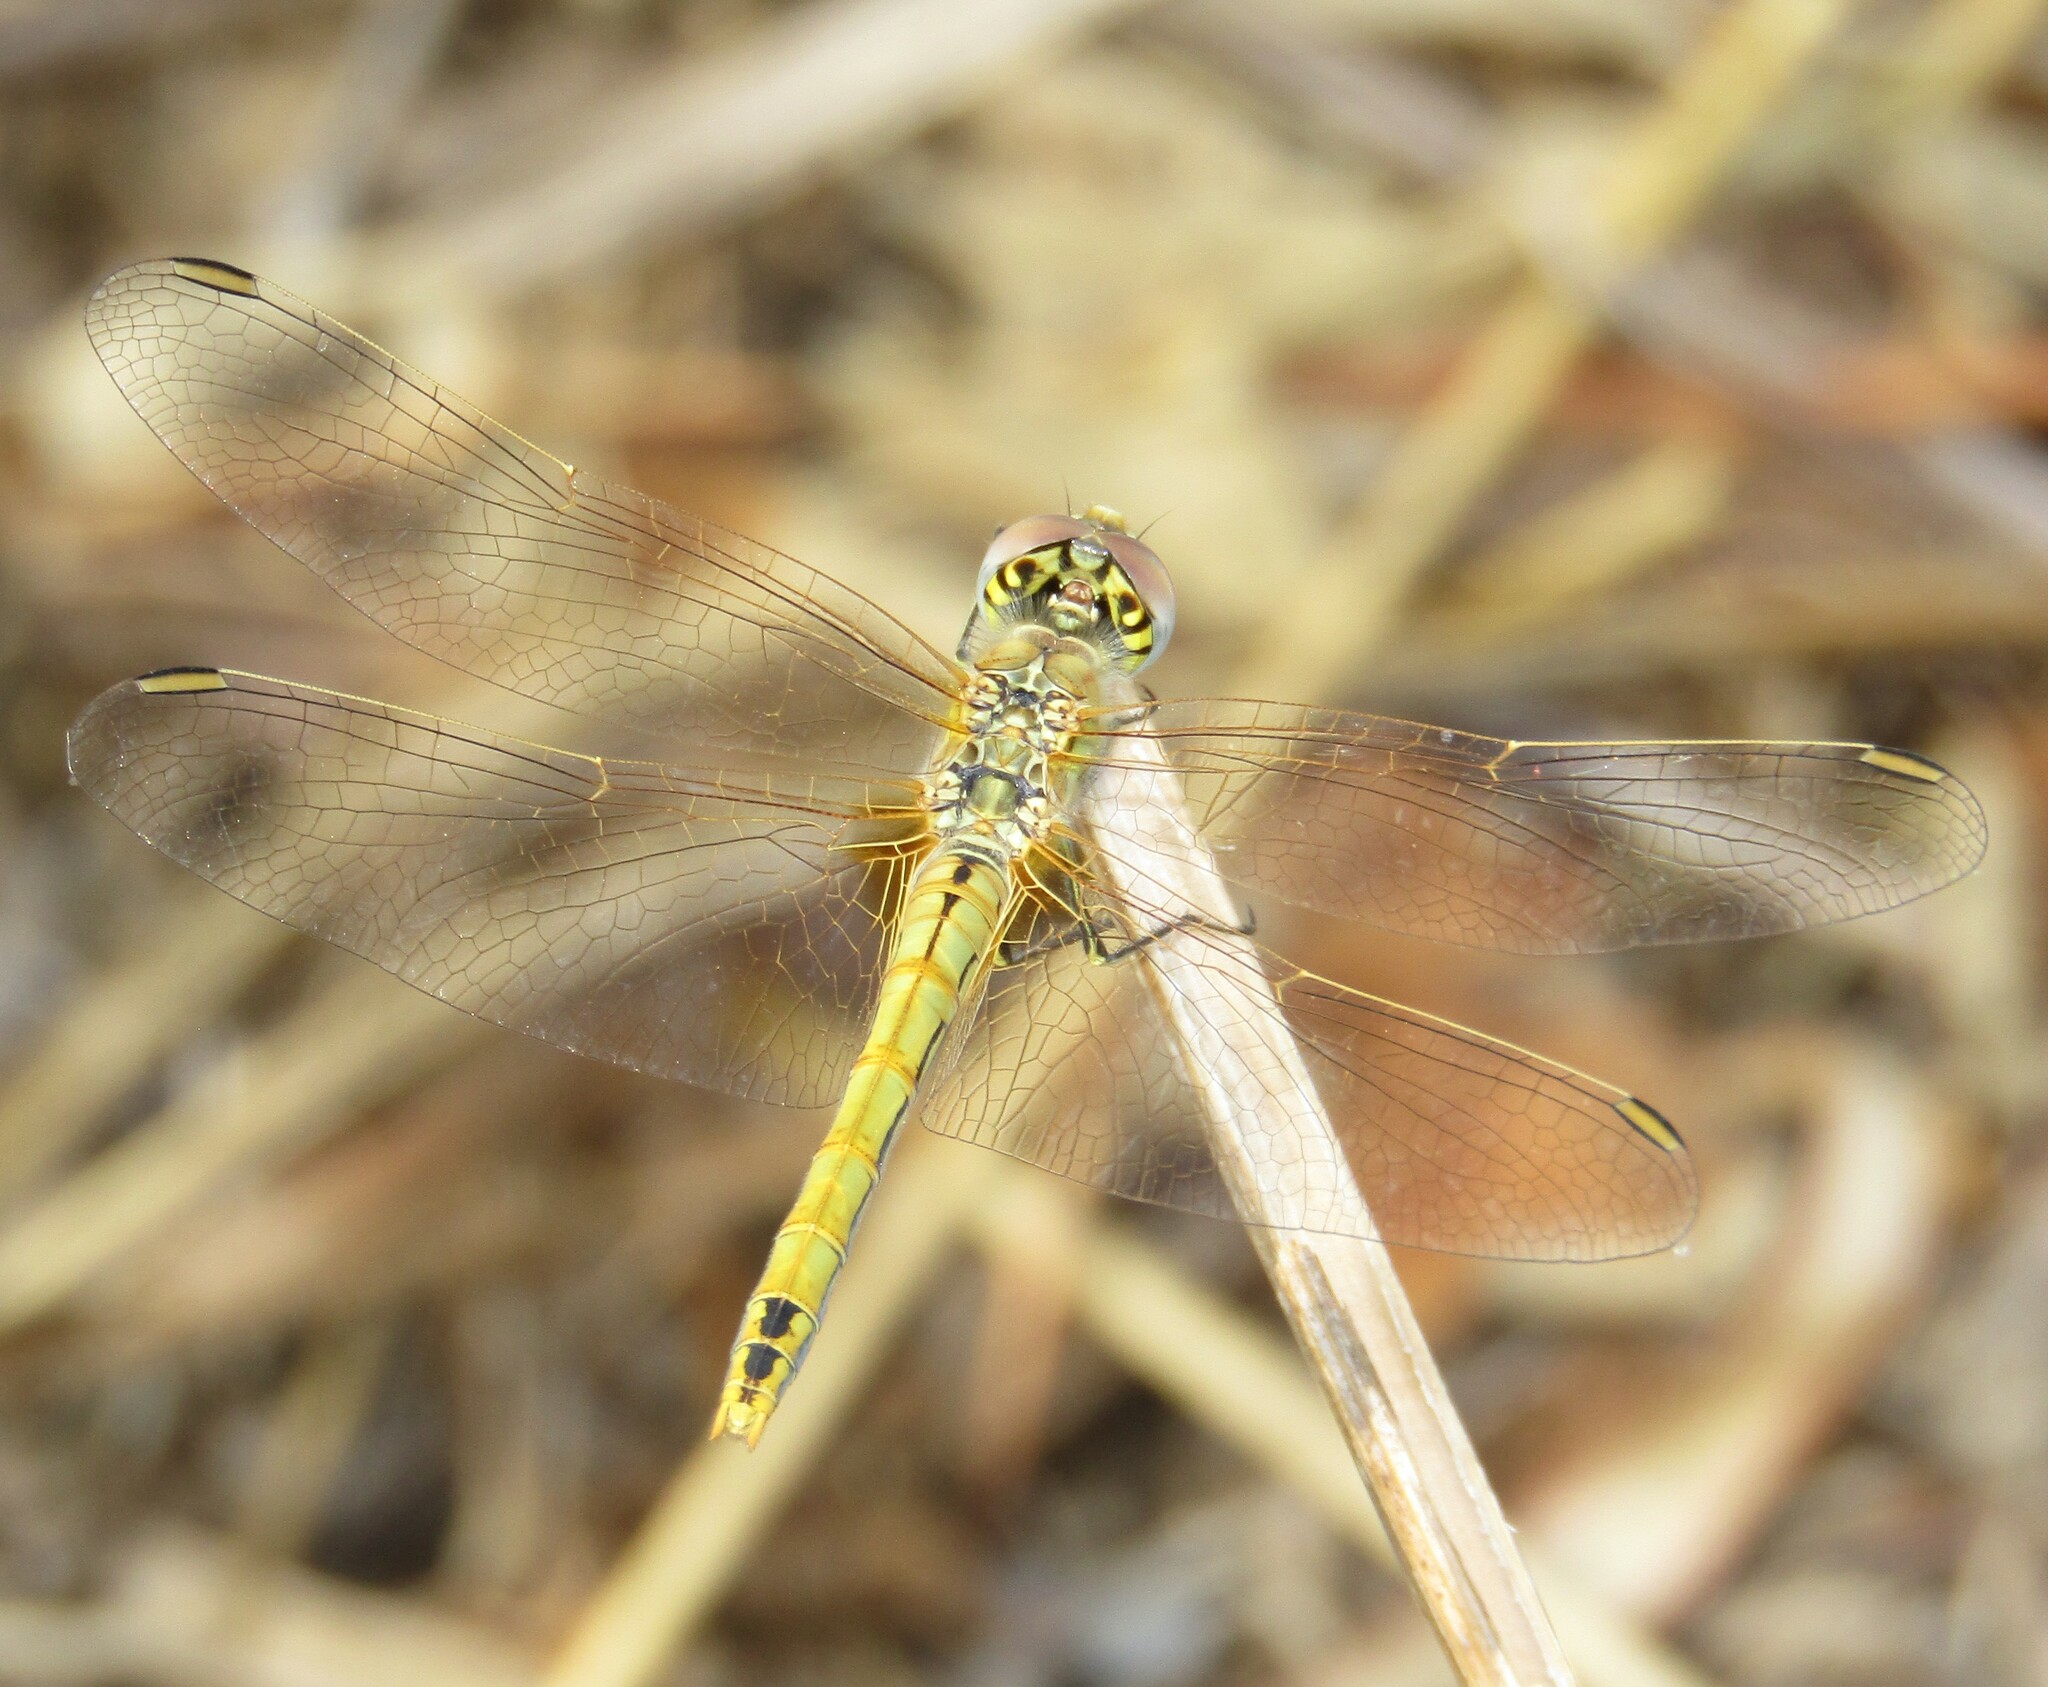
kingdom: Animalia
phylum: Arthropoda
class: Insecta
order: Odonata
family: Libellulidae
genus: Sympetrum
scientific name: Sympetrum fonscolombii
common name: Red-veined darter
